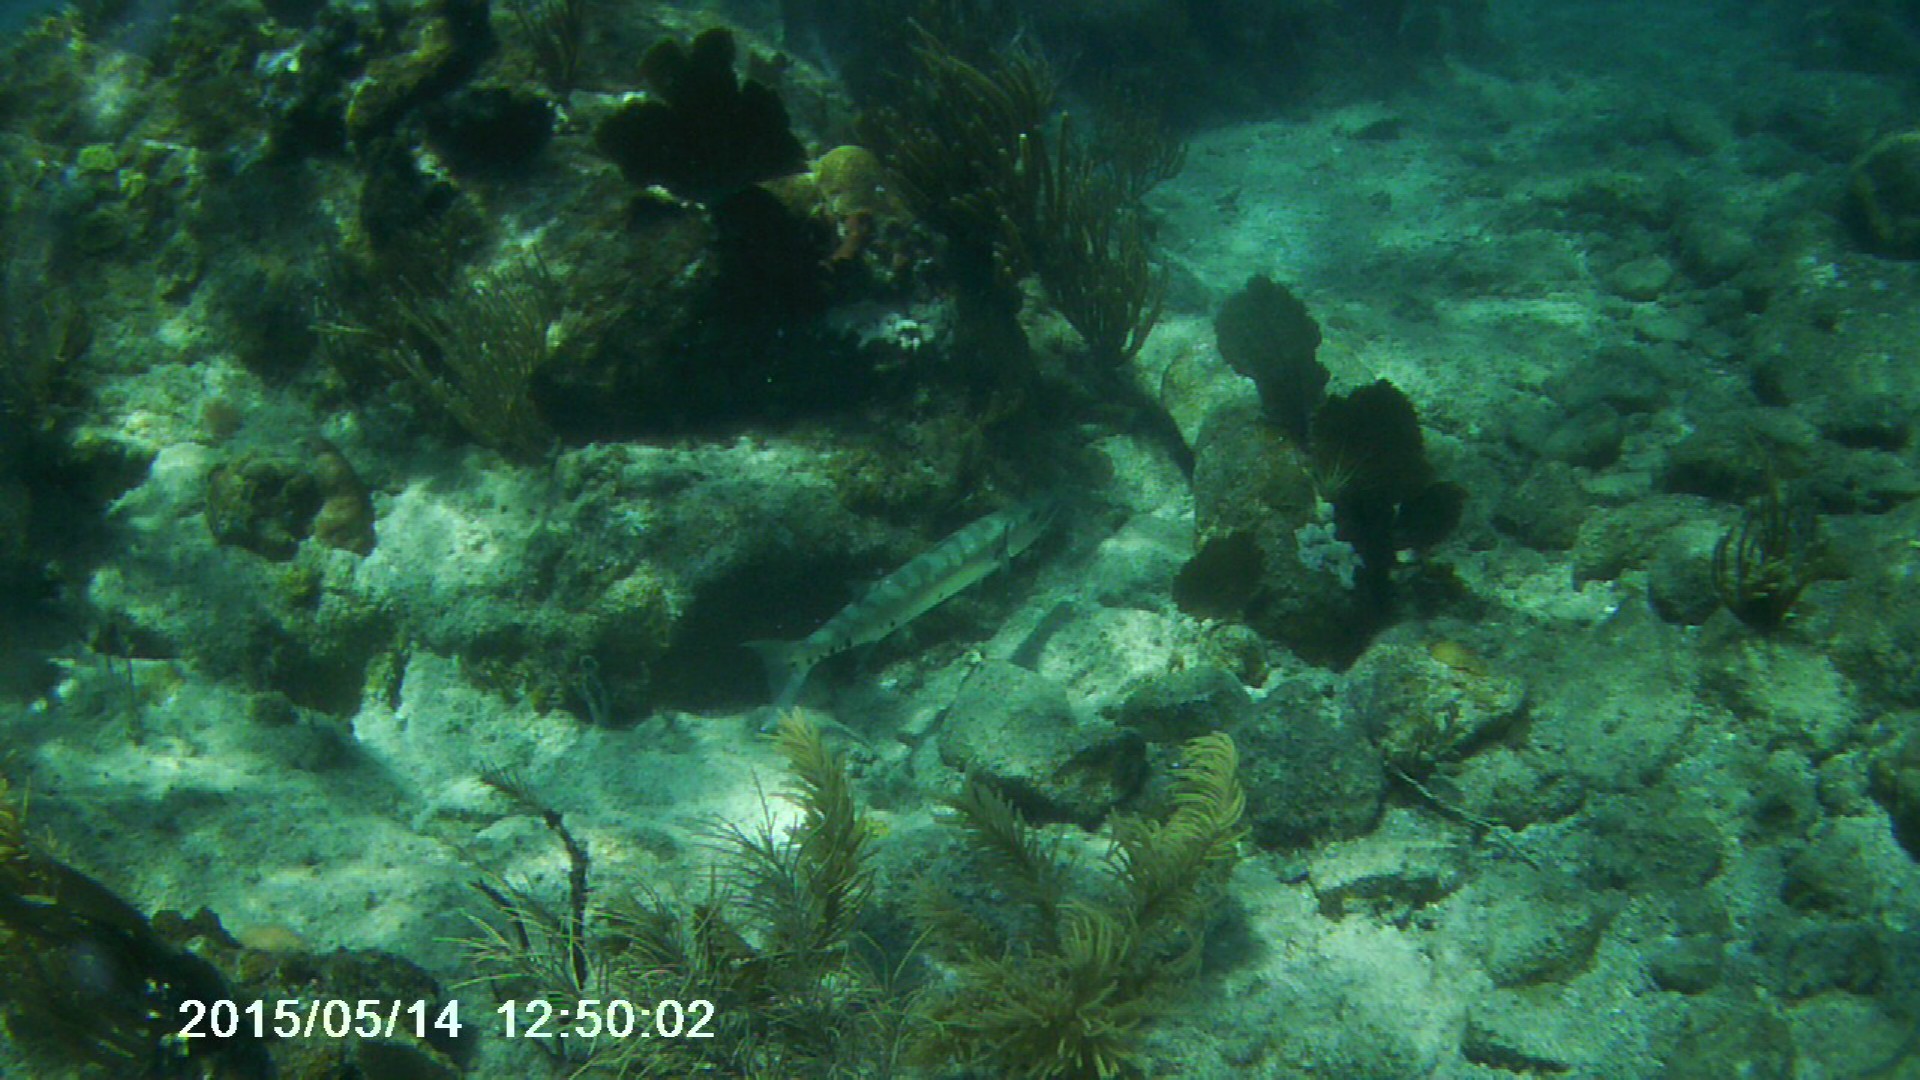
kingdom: Animalia
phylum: Chordata
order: Perciformes
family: Sphyraenidae
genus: Sphyraena
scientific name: Sphyraena barracuda
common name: Great barracuda
